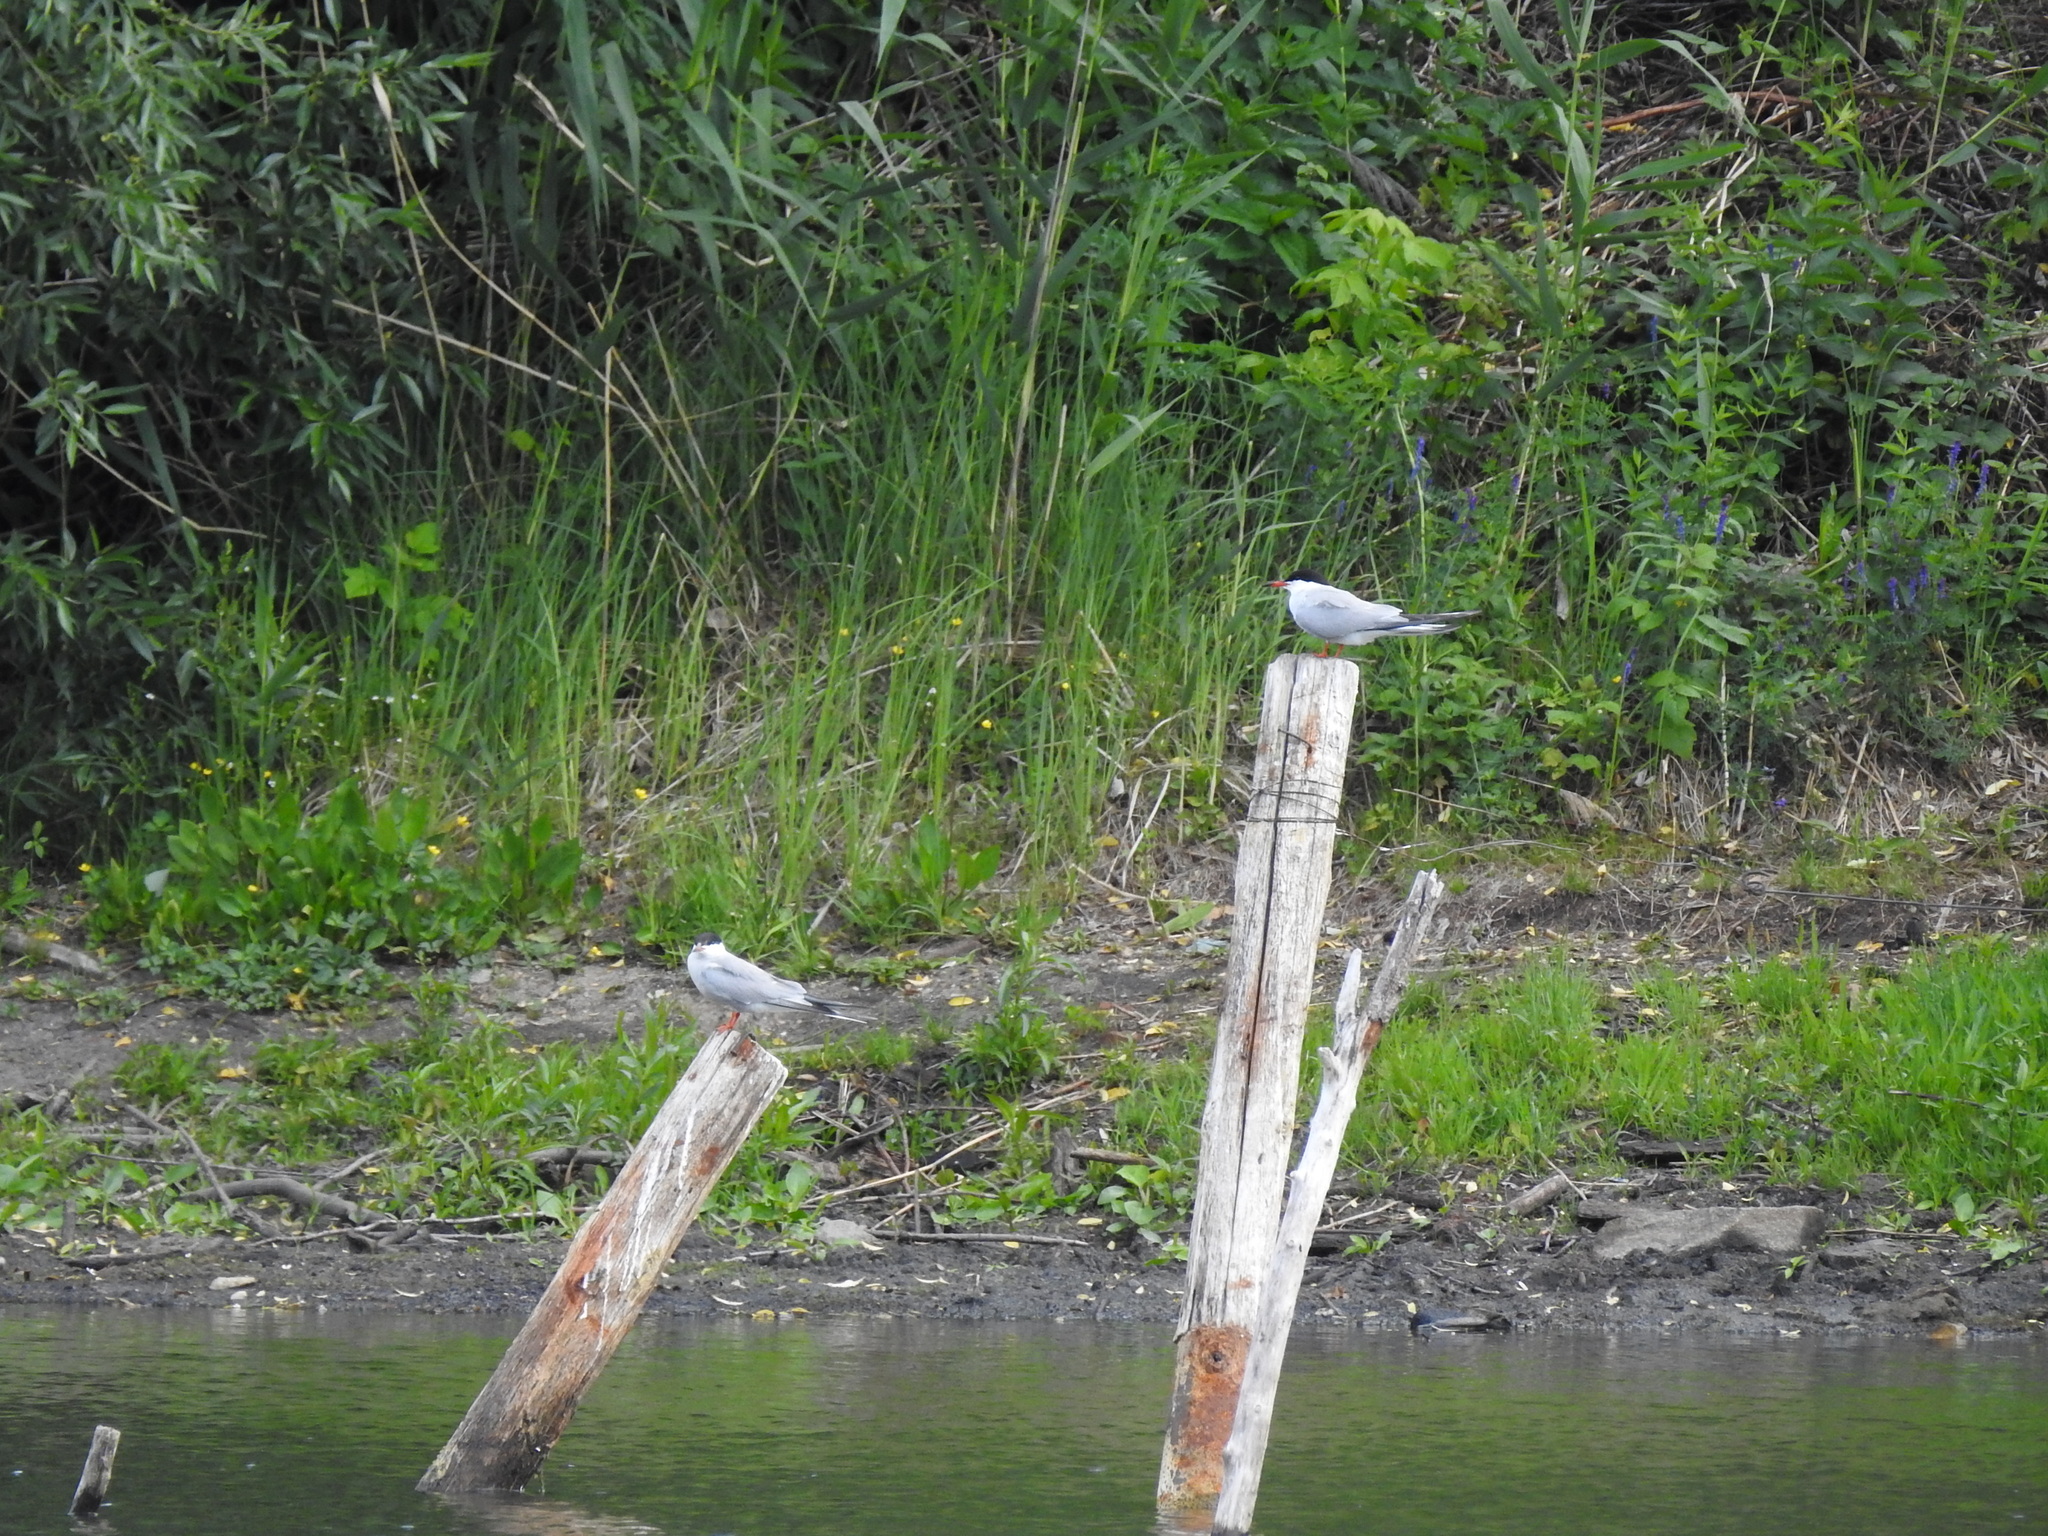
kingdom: Animalia
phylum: Chordata
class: Aves
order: Charadriiformes
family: Laridae
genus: Sterna
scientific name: Sterna hirundo
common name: Common tern
